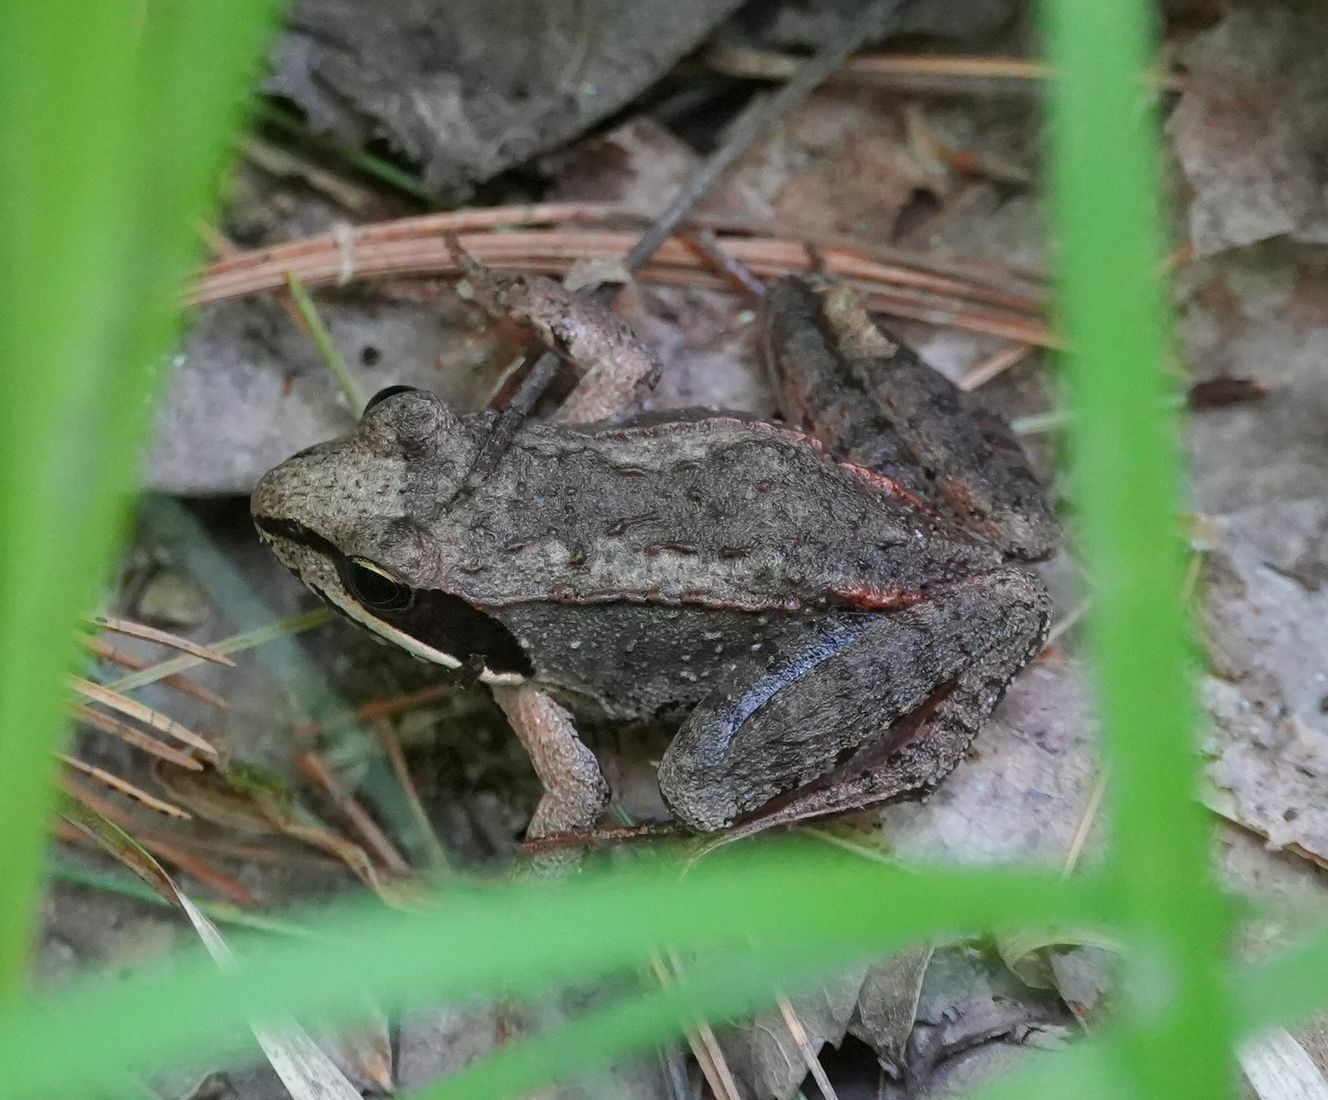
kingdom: Animalia
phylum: Chordata
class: Amphibia
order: Anura
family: Ranidae
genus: Lithobates
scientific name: Lithobates sylvaticus
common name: Wood frog
